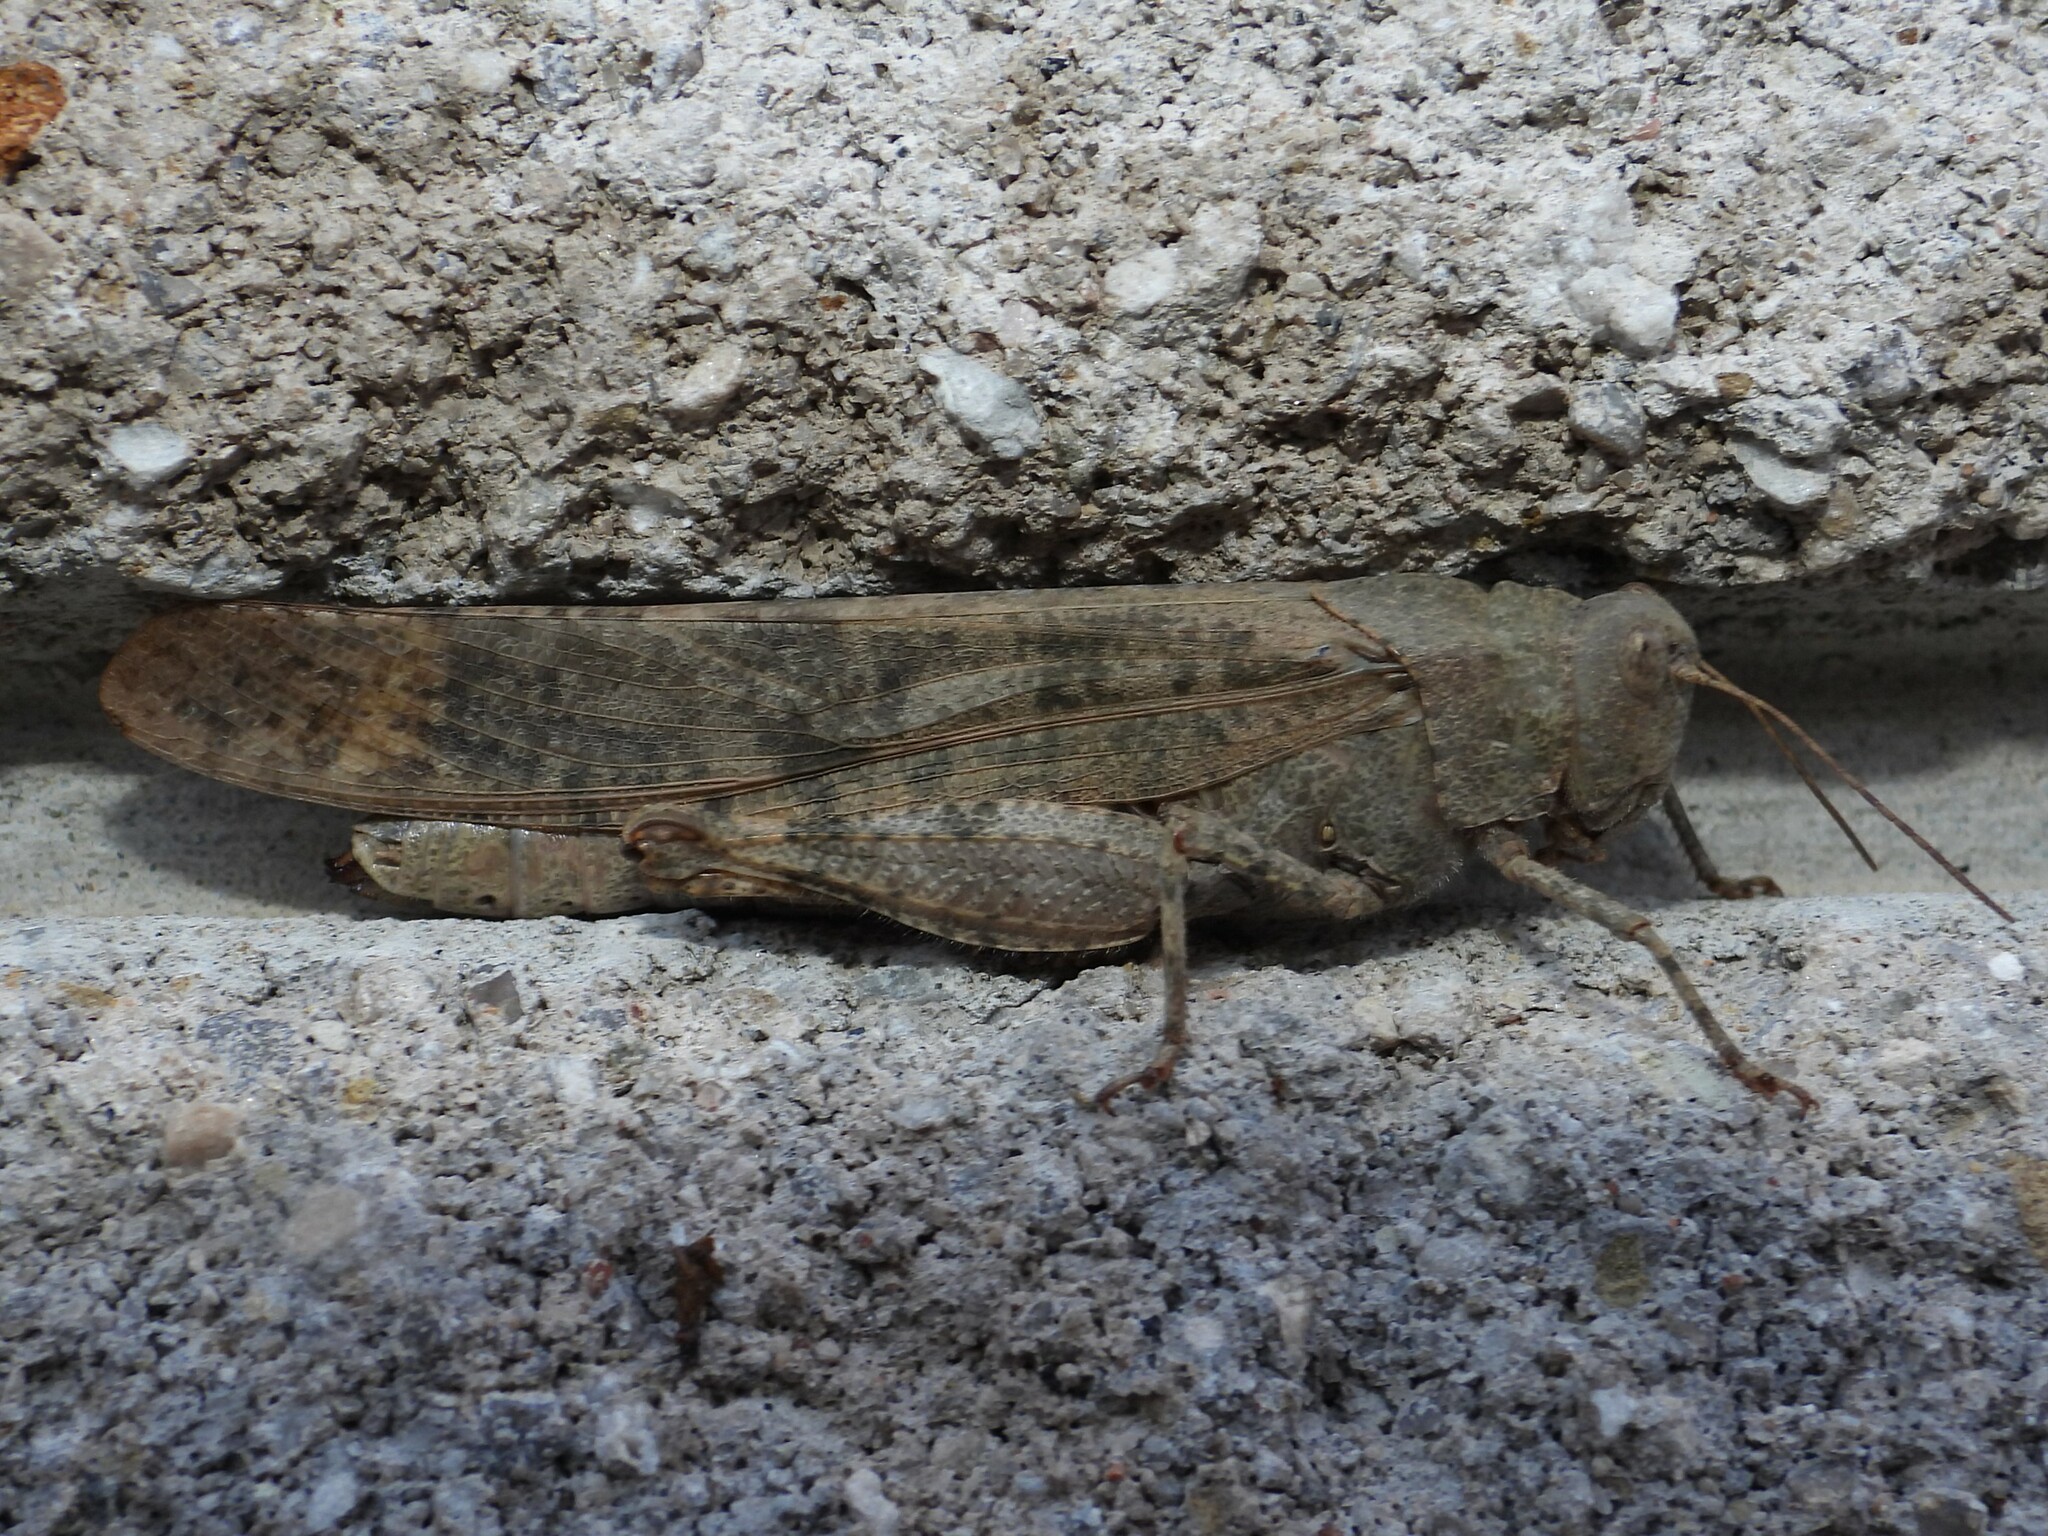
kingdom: Animalia
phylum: Arthropoda
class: Insecta
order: Orthoptera
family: Acrididae
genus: Dissosteira
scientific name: Dissosteira carolina
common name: Carolina grasshopper
